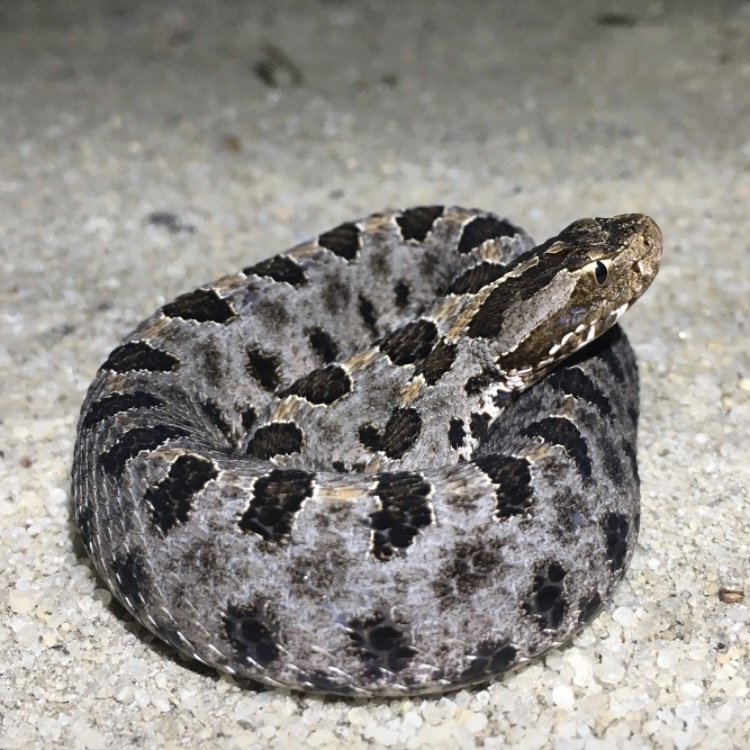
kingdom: Animalia
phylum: Chordata
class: Squamata
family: Viperidae
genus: Sistrurus
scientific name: Sistrurus miliarius
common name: Pygmy rattlesnake
